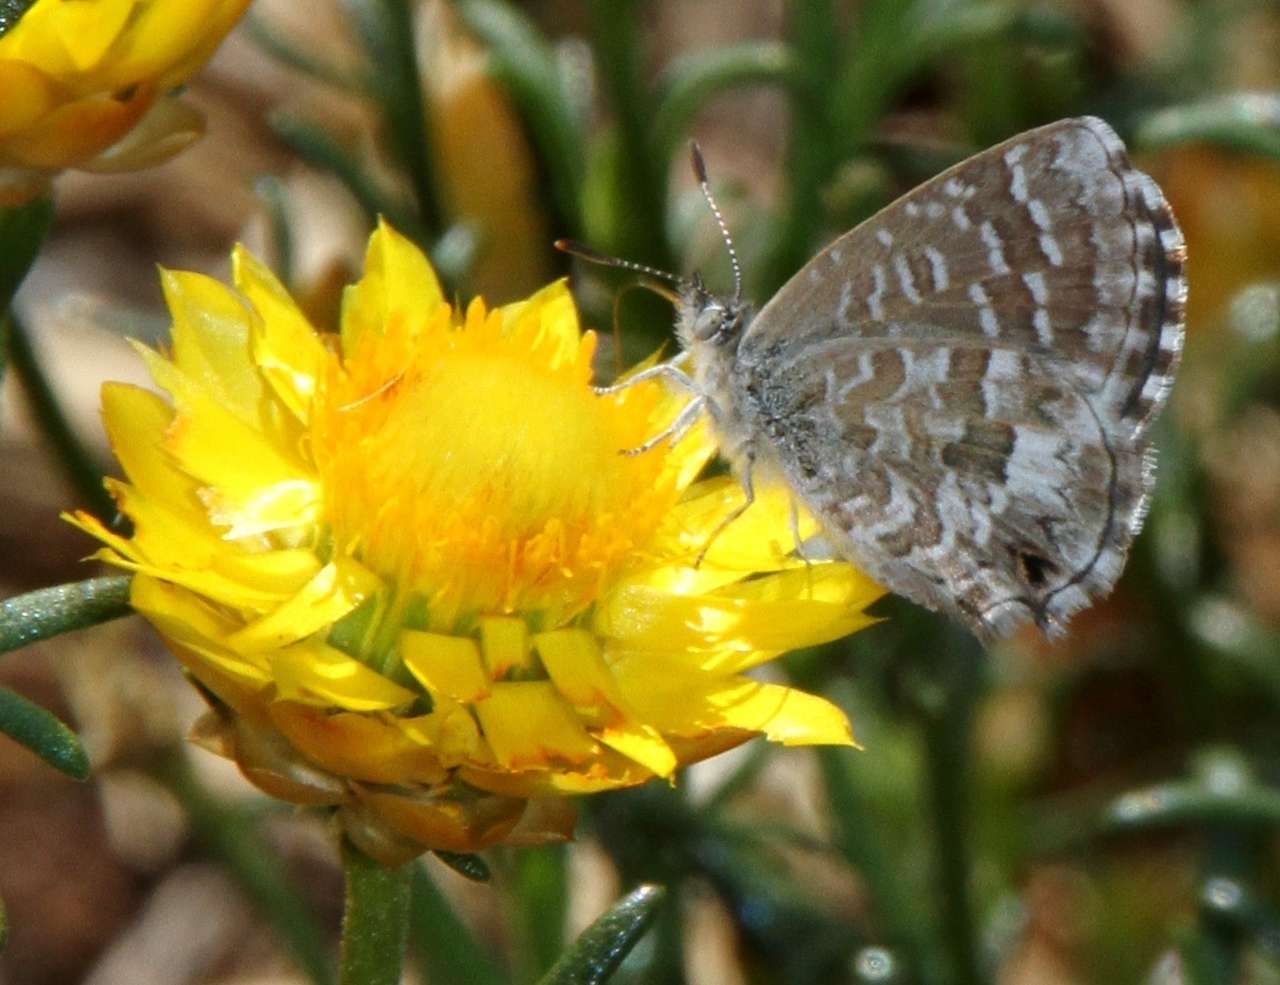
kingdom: Animalia
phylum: Arthropoda
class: Insecta
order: Lepidoptera
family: Lycaenidae
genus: Theclinesthes
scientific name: Theclinesthes serpentata
